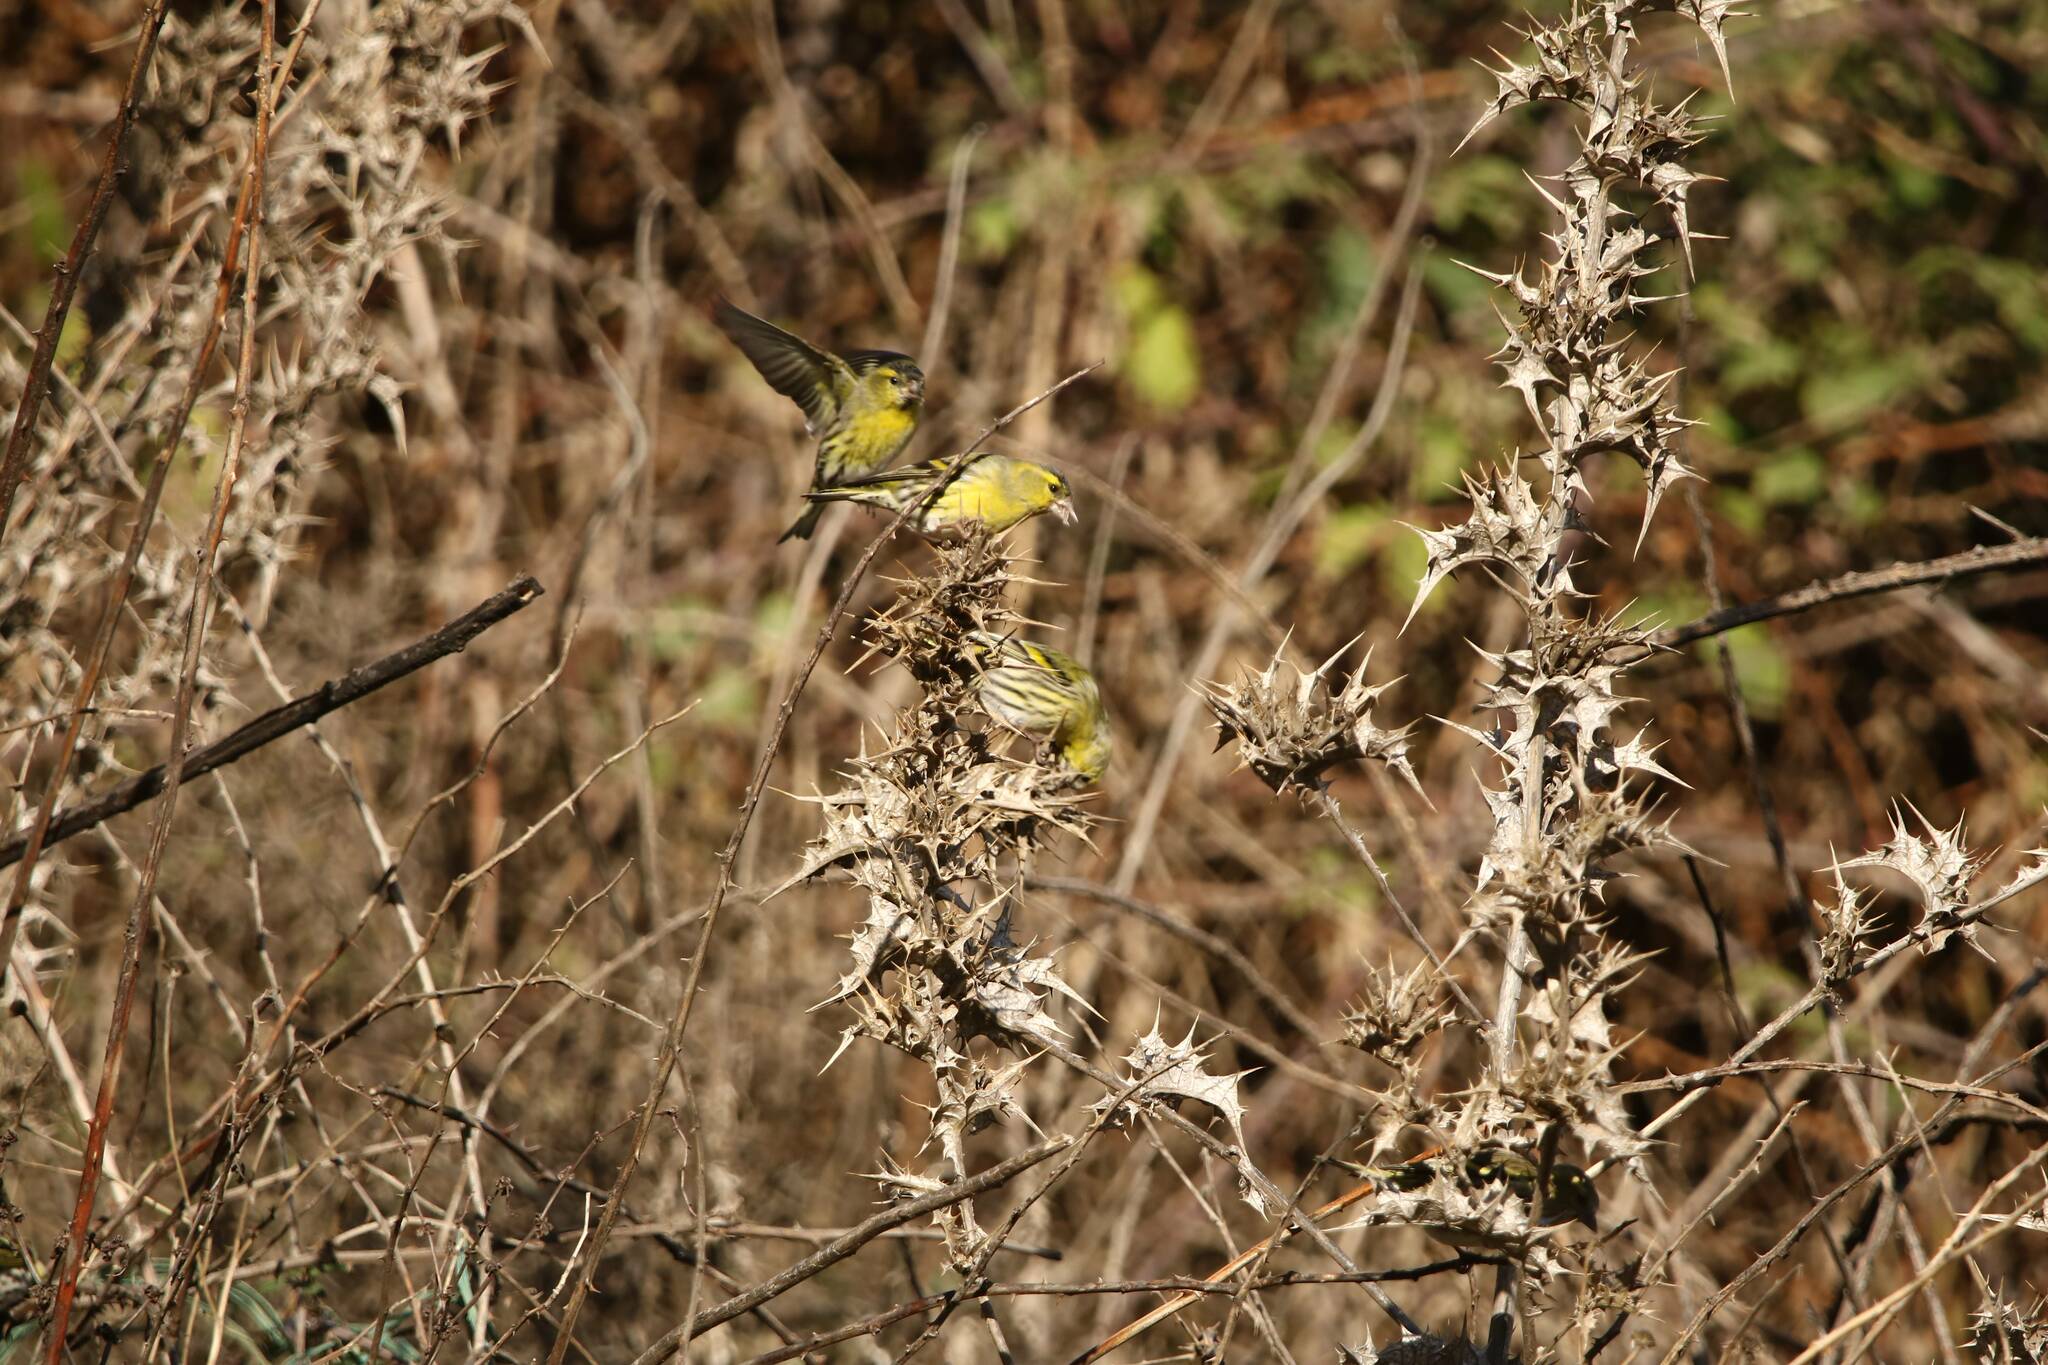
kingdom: Animalia
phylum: Chordata
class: Aves
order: Passeriformes
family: Fringillidae
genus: Spinus
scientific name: Spinus spinus
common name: Eurasian siskin
